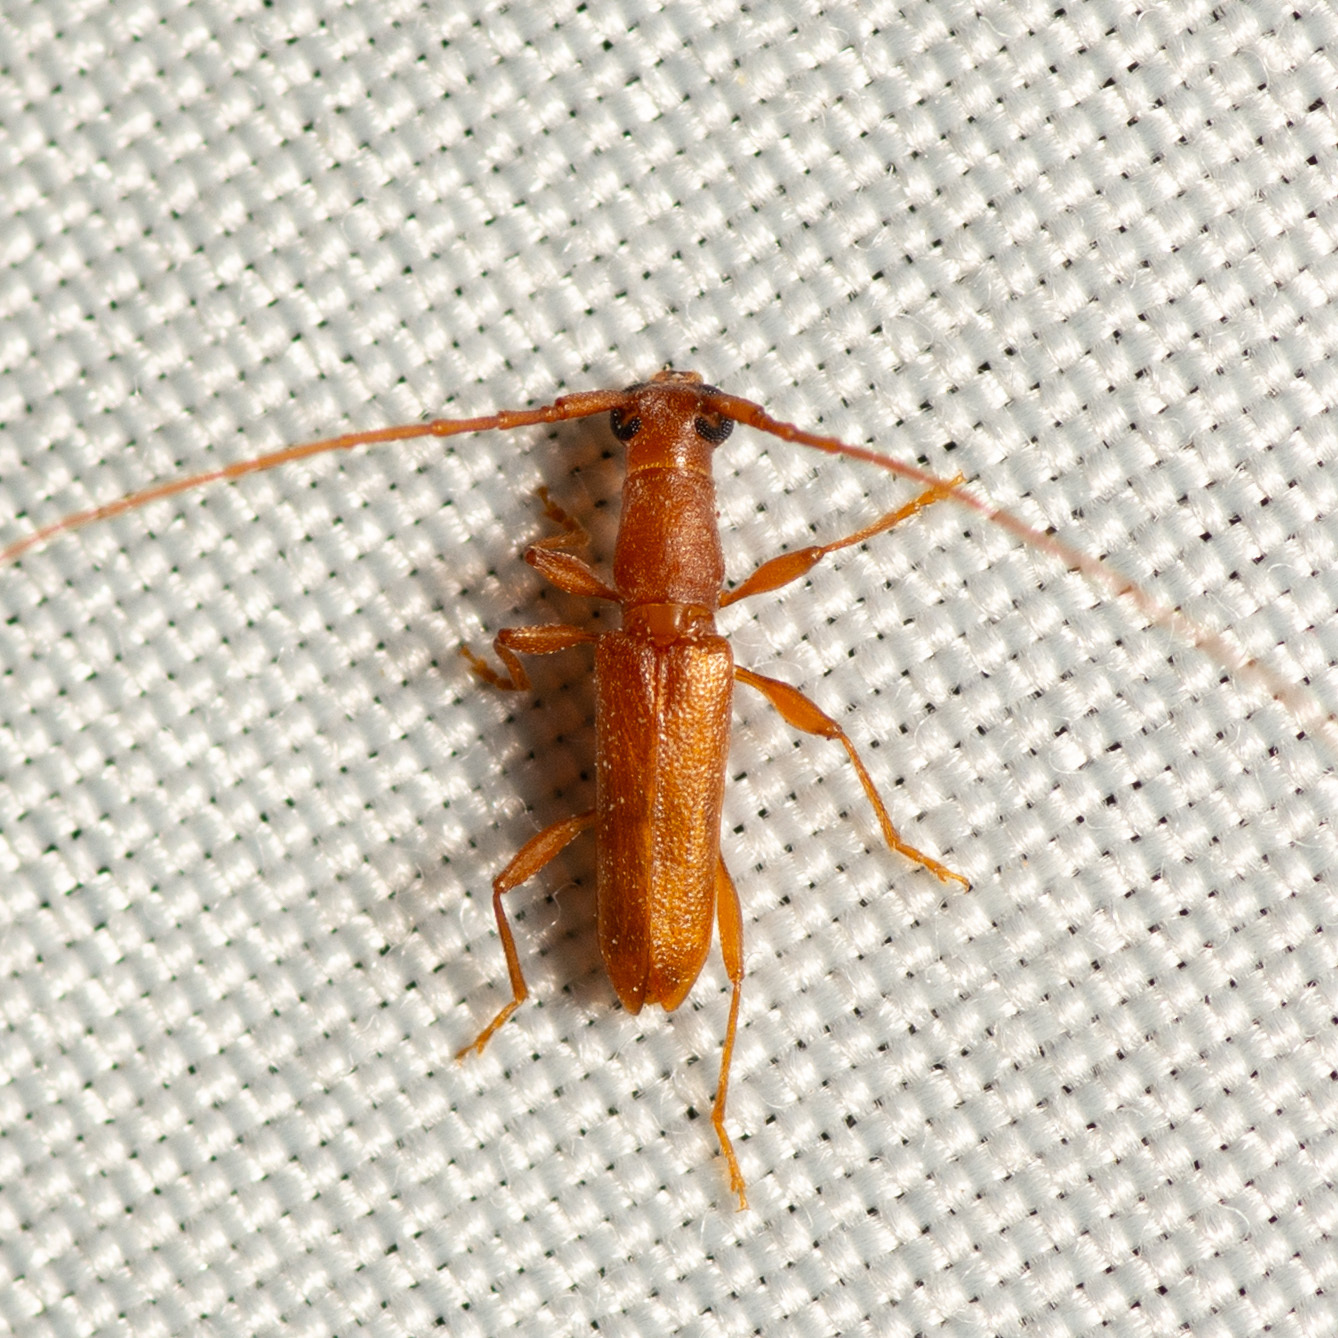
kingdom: Animalia
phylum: Arthropoda
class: Insecta
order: Coleoptera
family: Cerambycidae
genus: Hypexilis
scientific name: Hypexilis pallida
